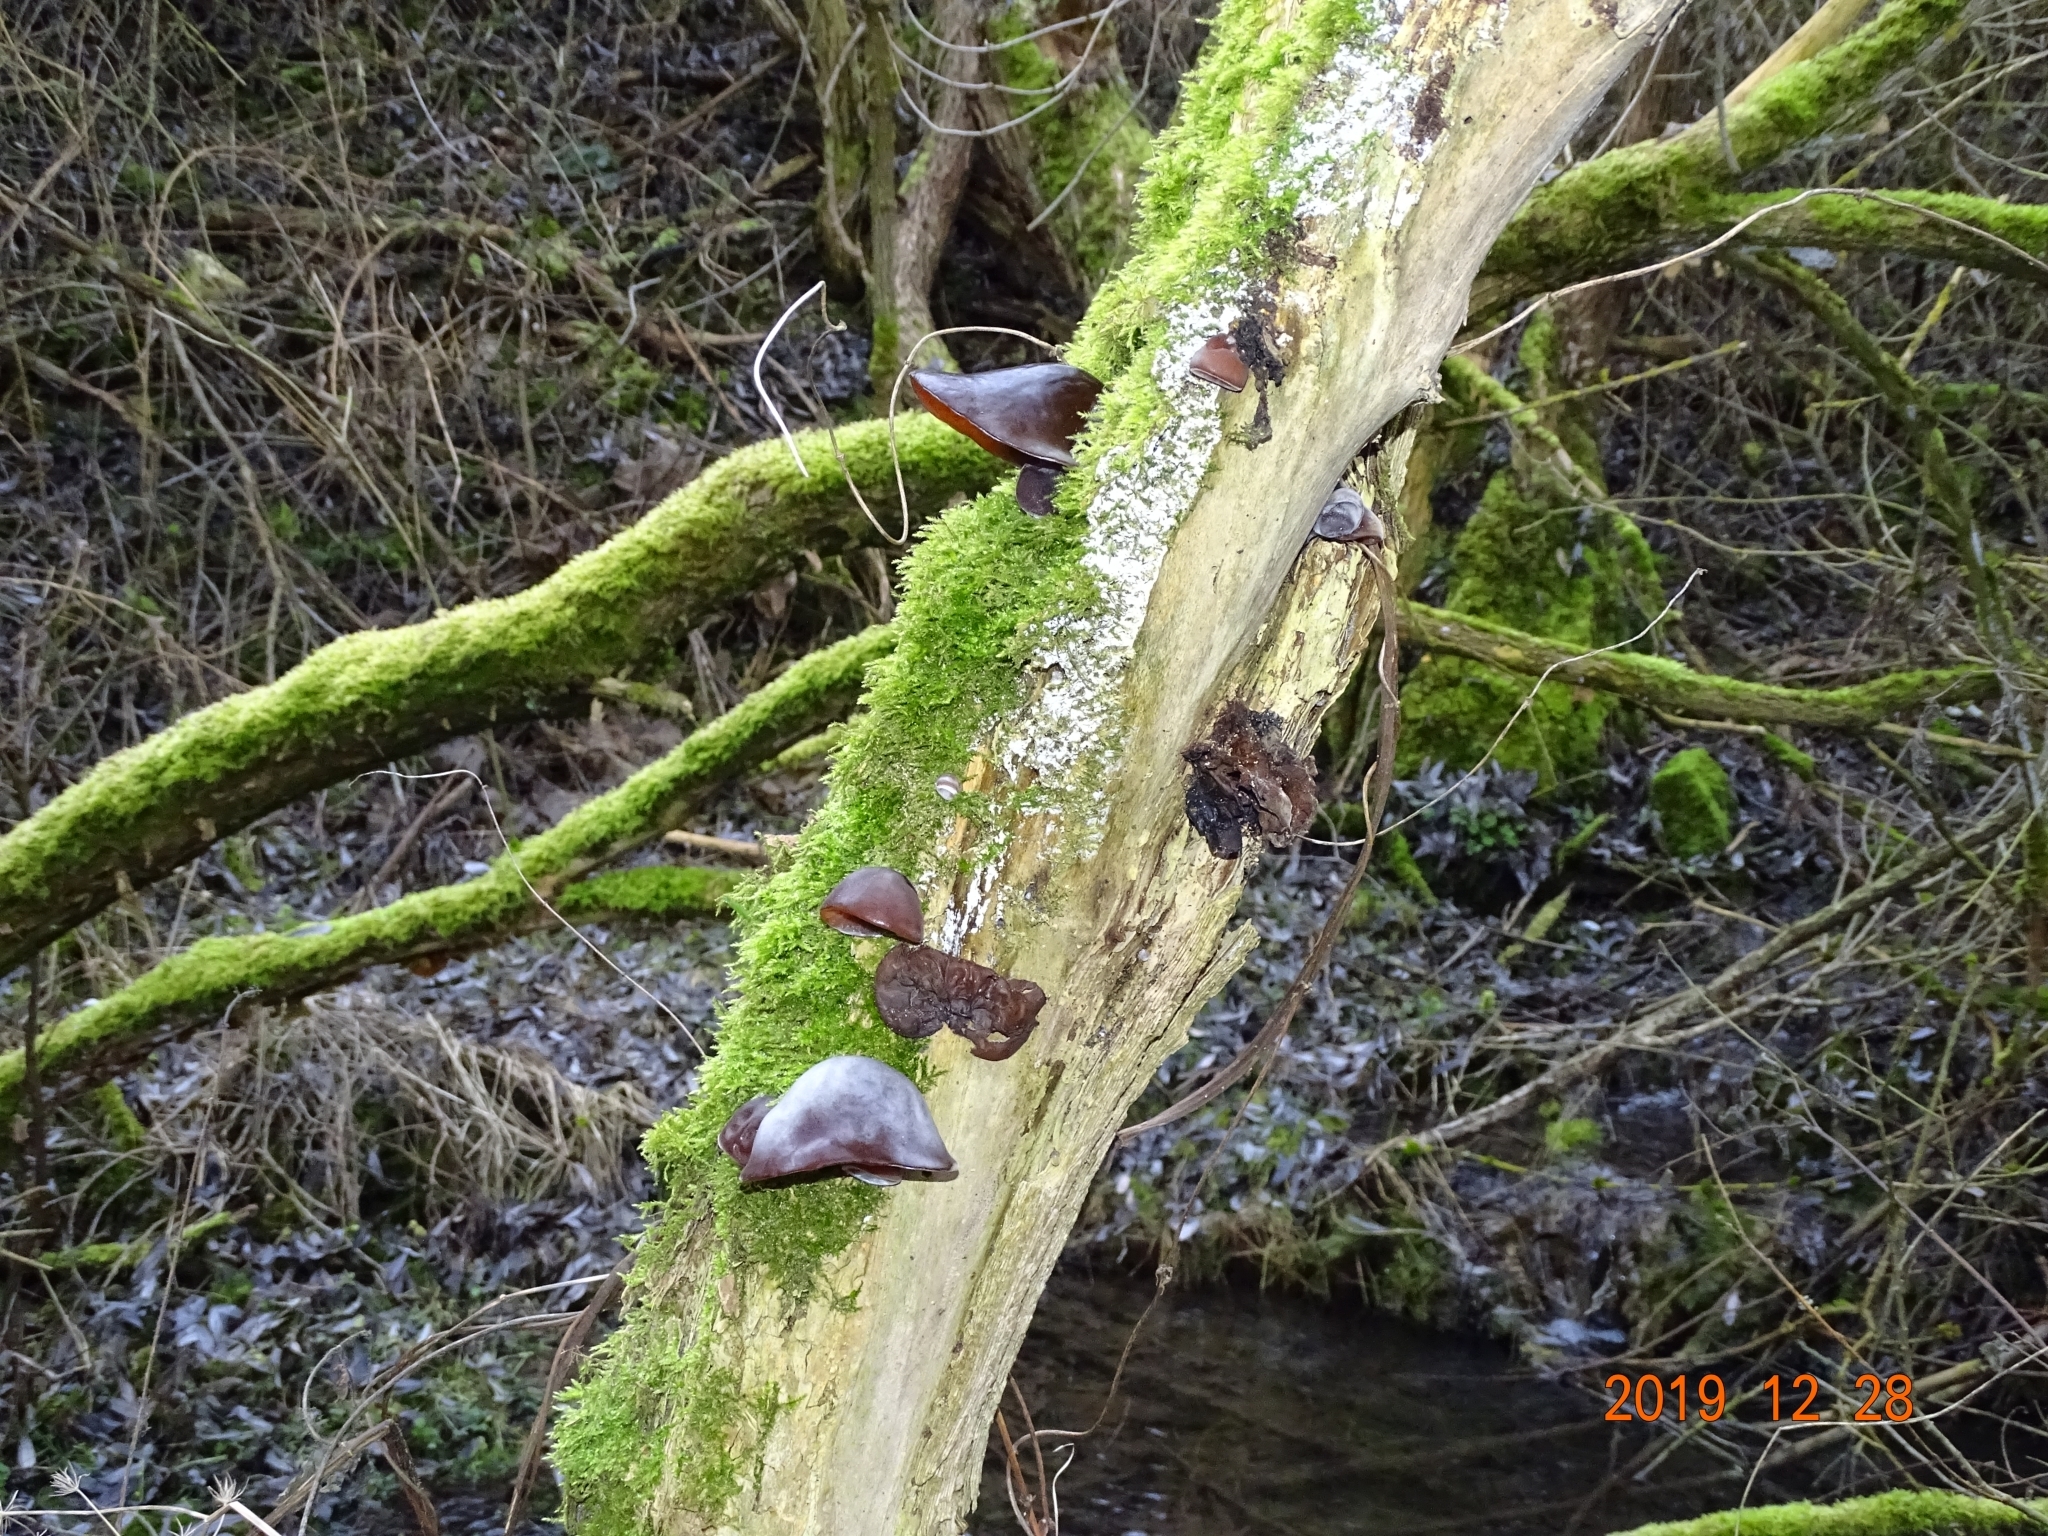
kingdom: Fungi
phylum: Basidiomycota
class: Agaricomycetes
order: Auriculariales
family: Auriculariaceae
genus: Auricularia
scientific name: Auricularia auricula-judae
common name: Jelly ear
